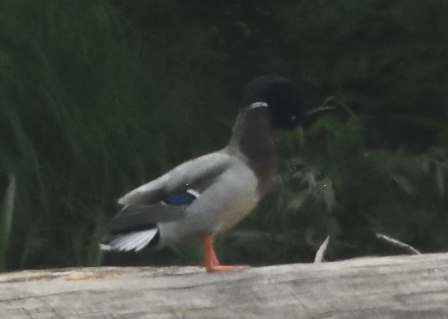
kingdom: Animalia
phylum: Chordata
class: Aves
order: Anseriformes
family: Anatidae
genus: Anas
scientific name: Anas platyrhynchos
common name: Mallard
